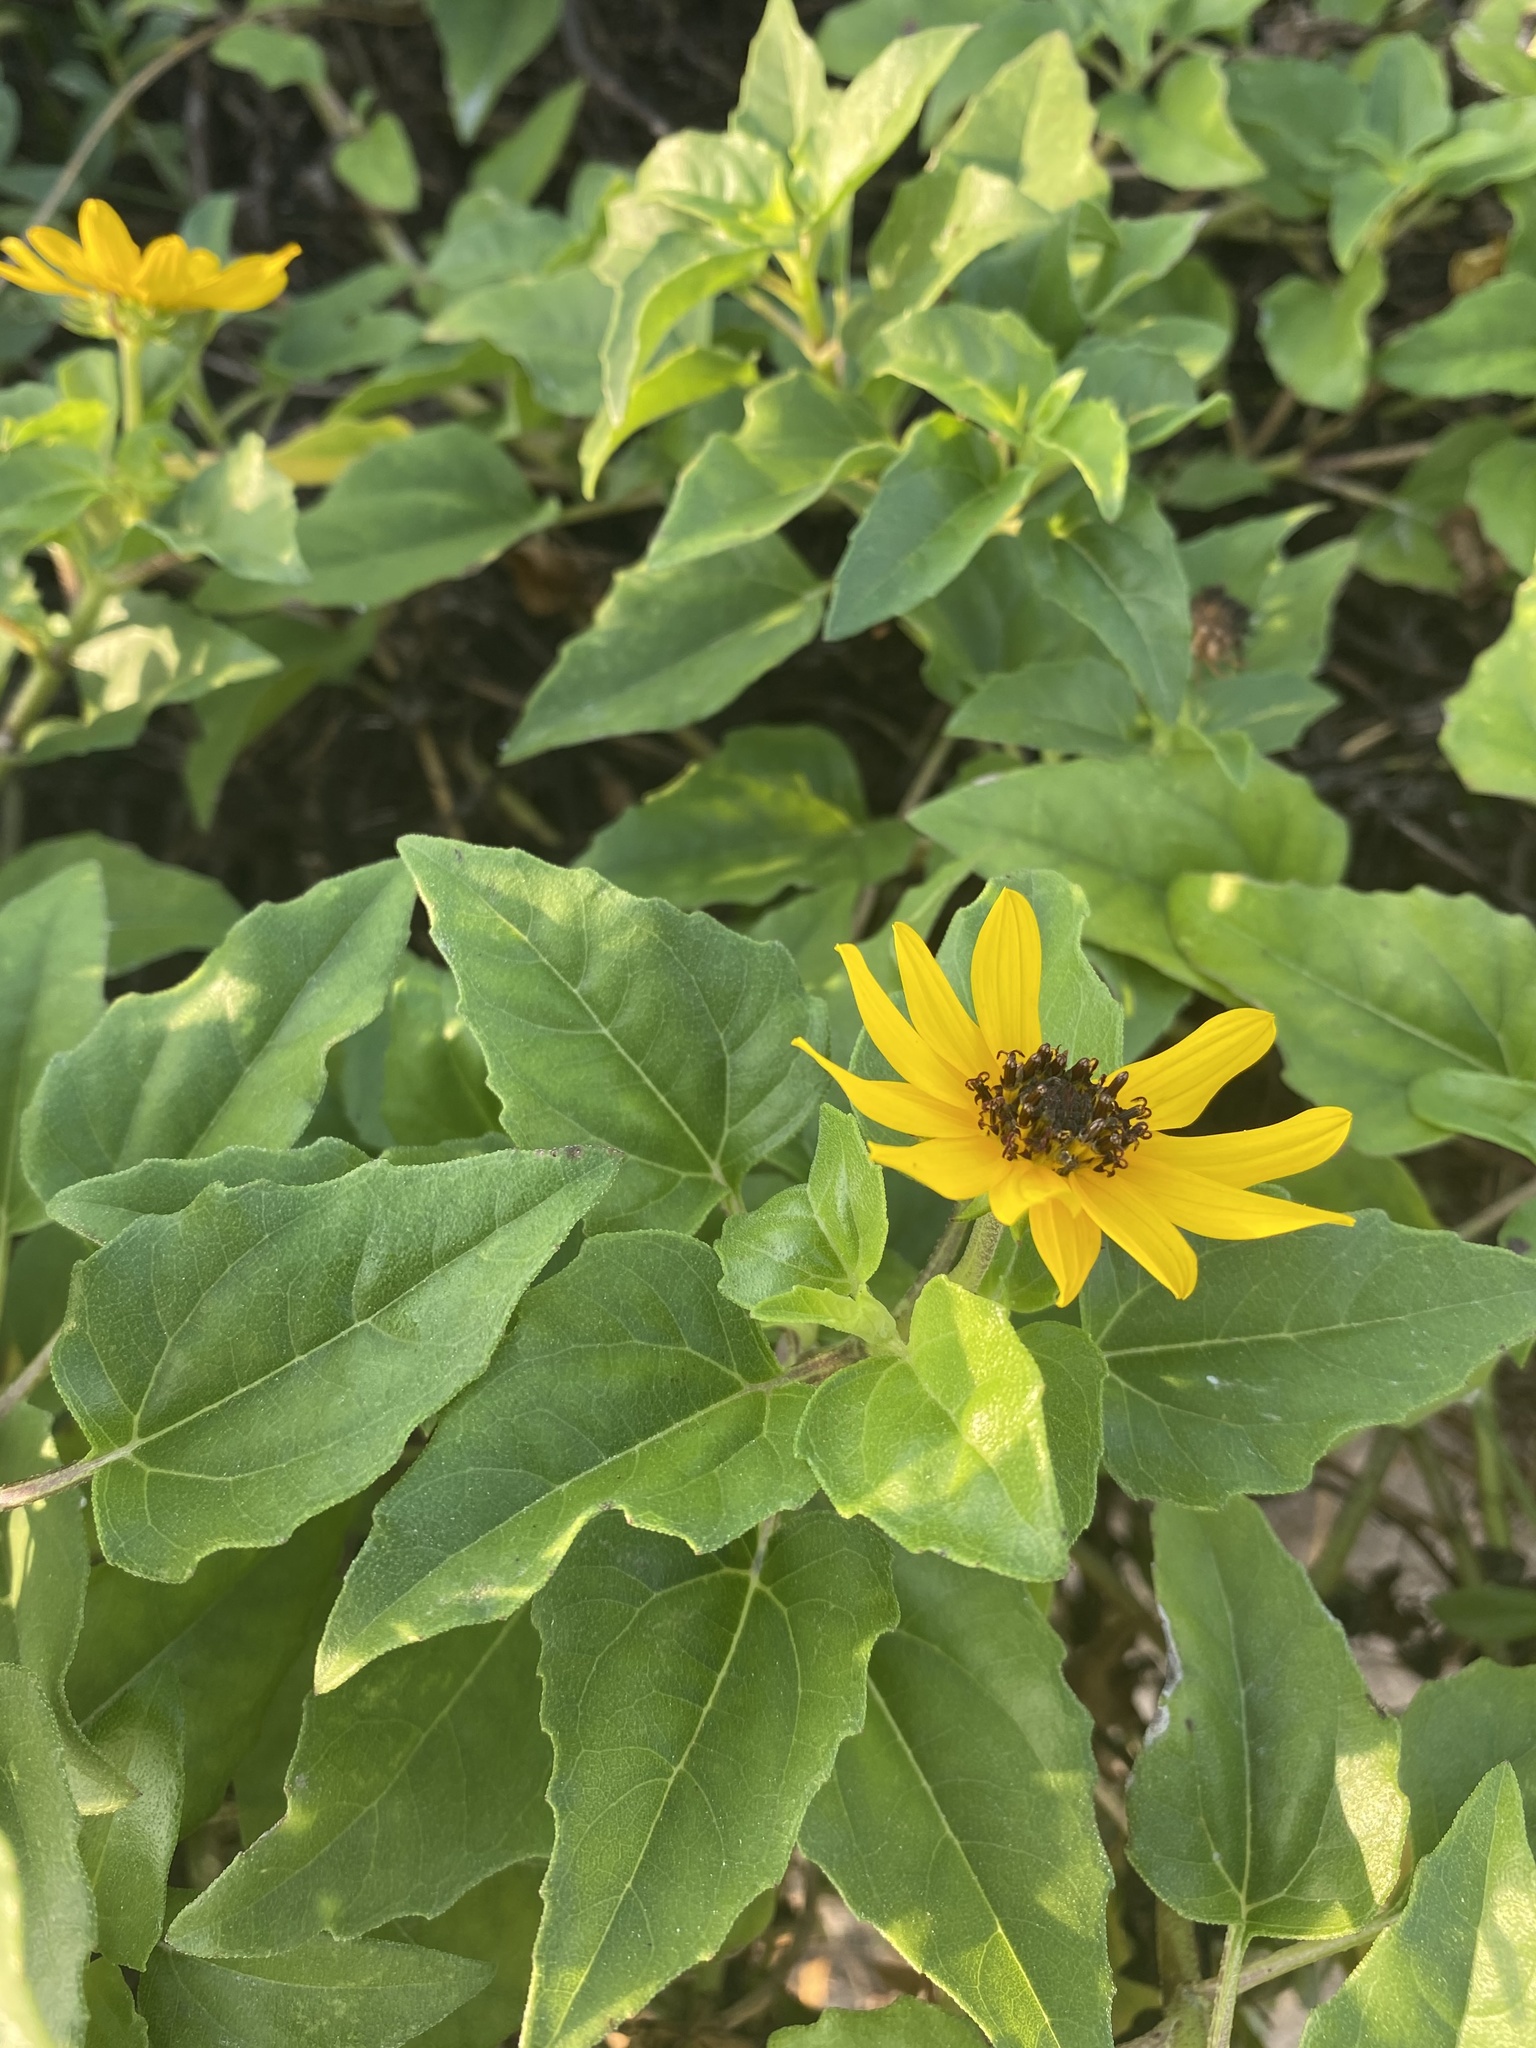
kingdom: Plantae
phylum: Tracheophyta
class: Magnoliopsida
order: Asterales
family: Asteraceae
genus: Helianthus
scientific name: Helianthus debilis
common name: Weak sunflower
